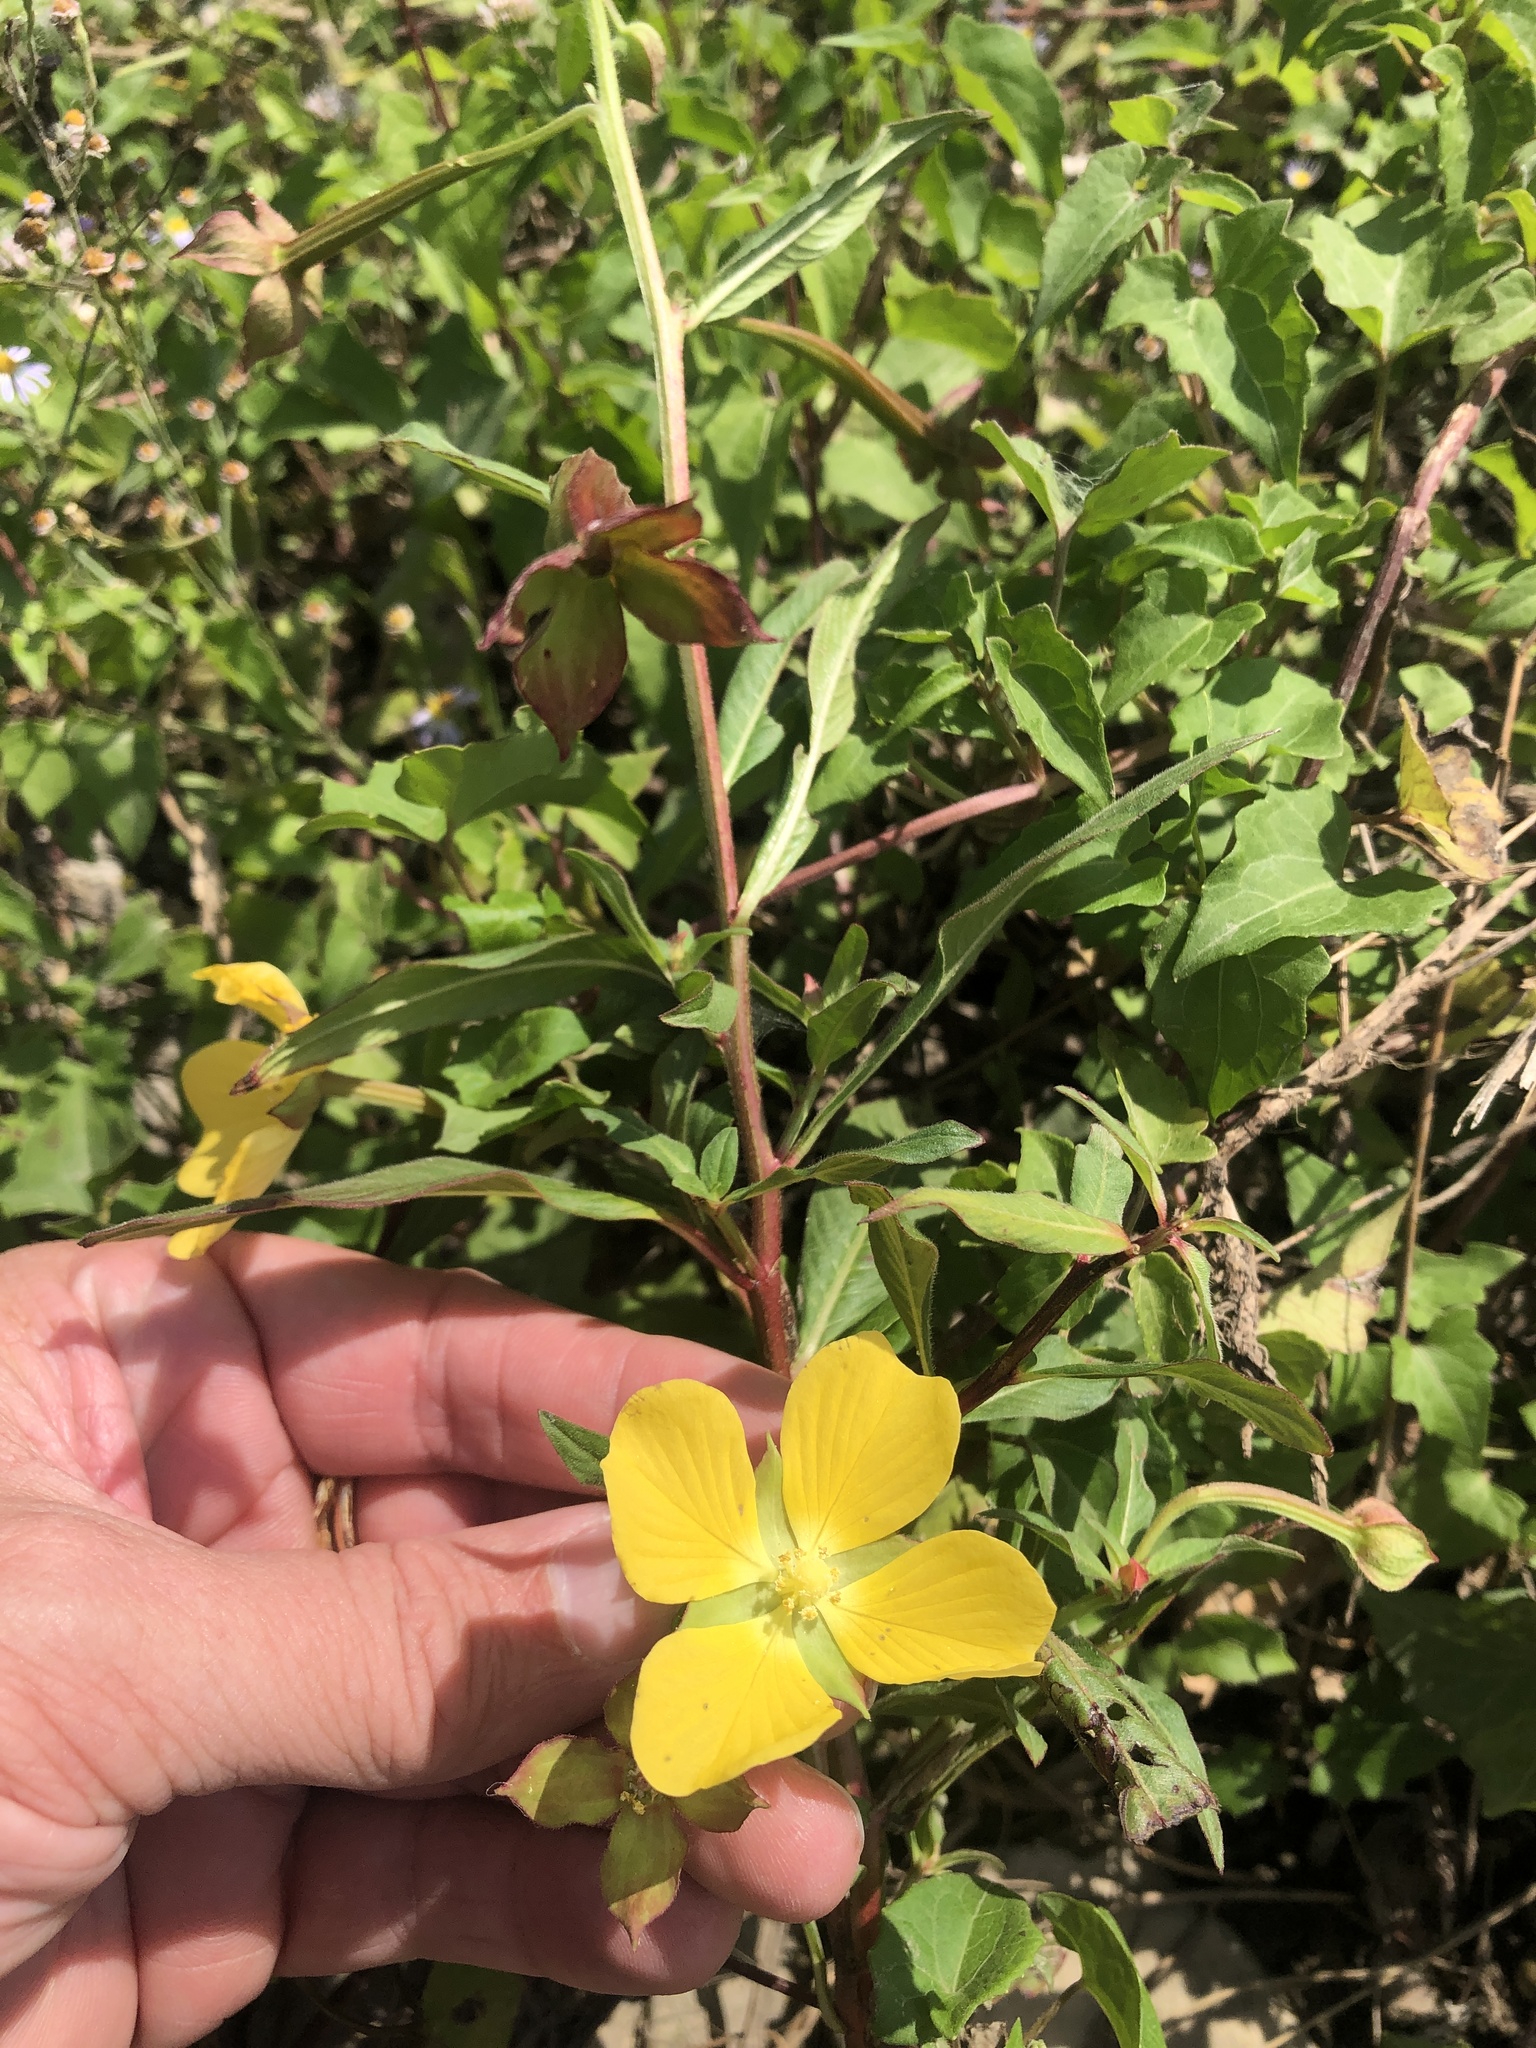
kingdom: Plantae
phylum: Tracheophyta
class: Magnoliopsida
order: Myrtales
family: Onagraceae
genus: Ludwigia
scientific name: Ludwigia octovalvis
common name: Water-primrose
